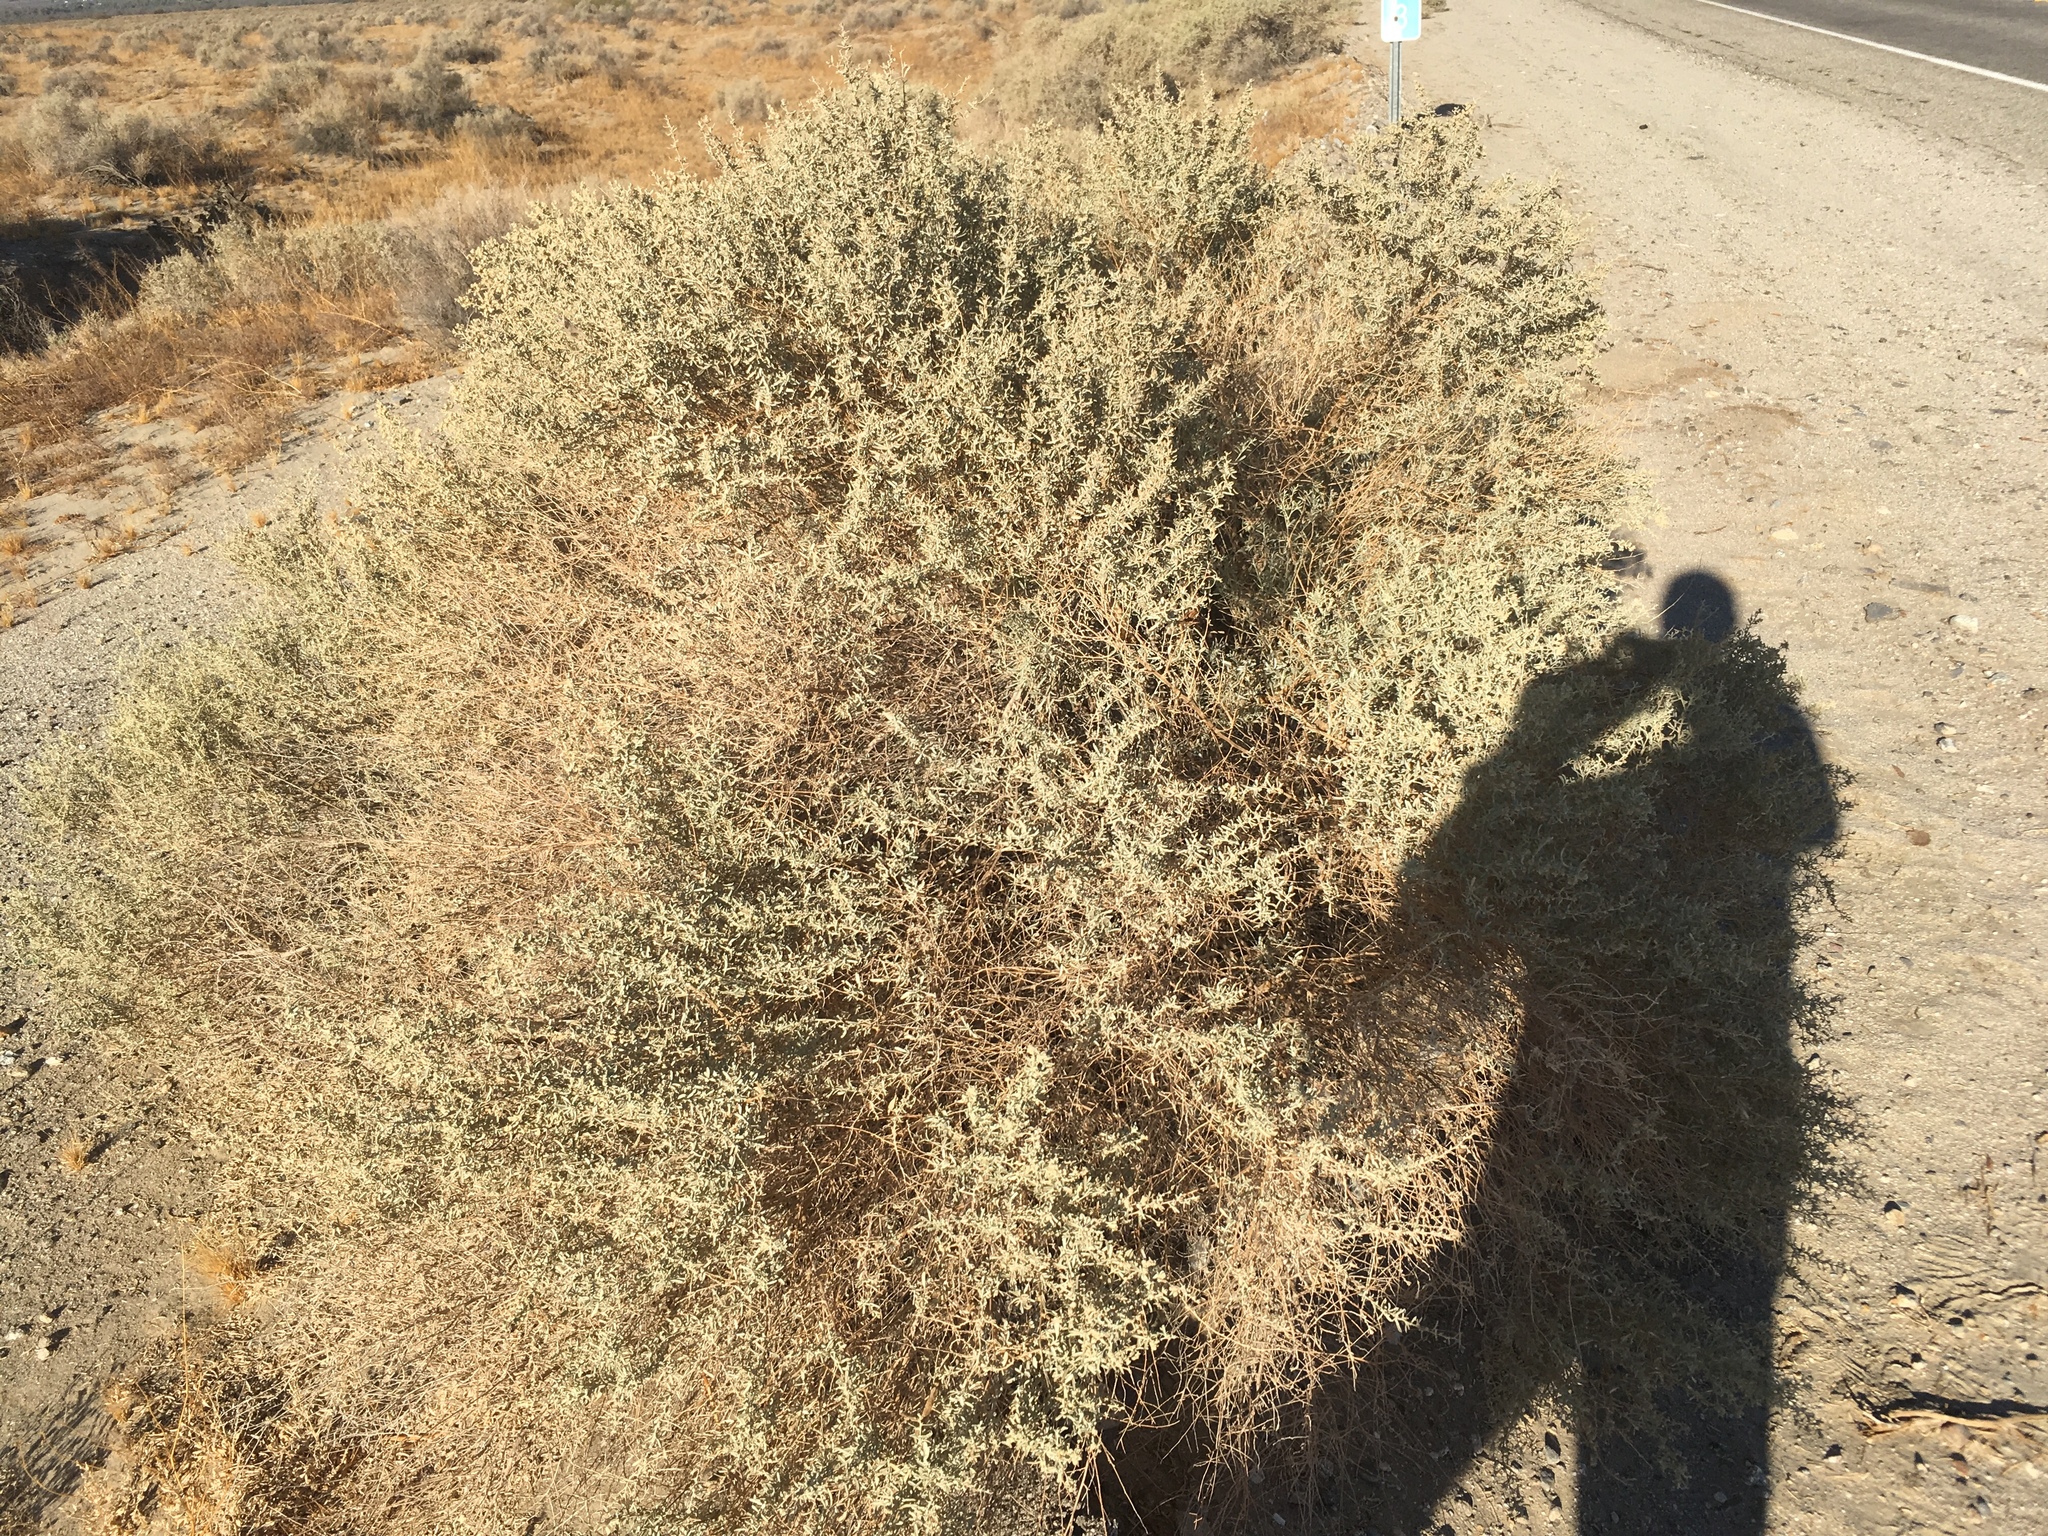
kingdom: Plantae
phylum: Tracheophyta
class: Magnoliopsida
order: Caryophyllales
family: Amaranthaceae
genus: Atriplex
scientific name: Atriplex canescens
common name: Four-wing saltbush
